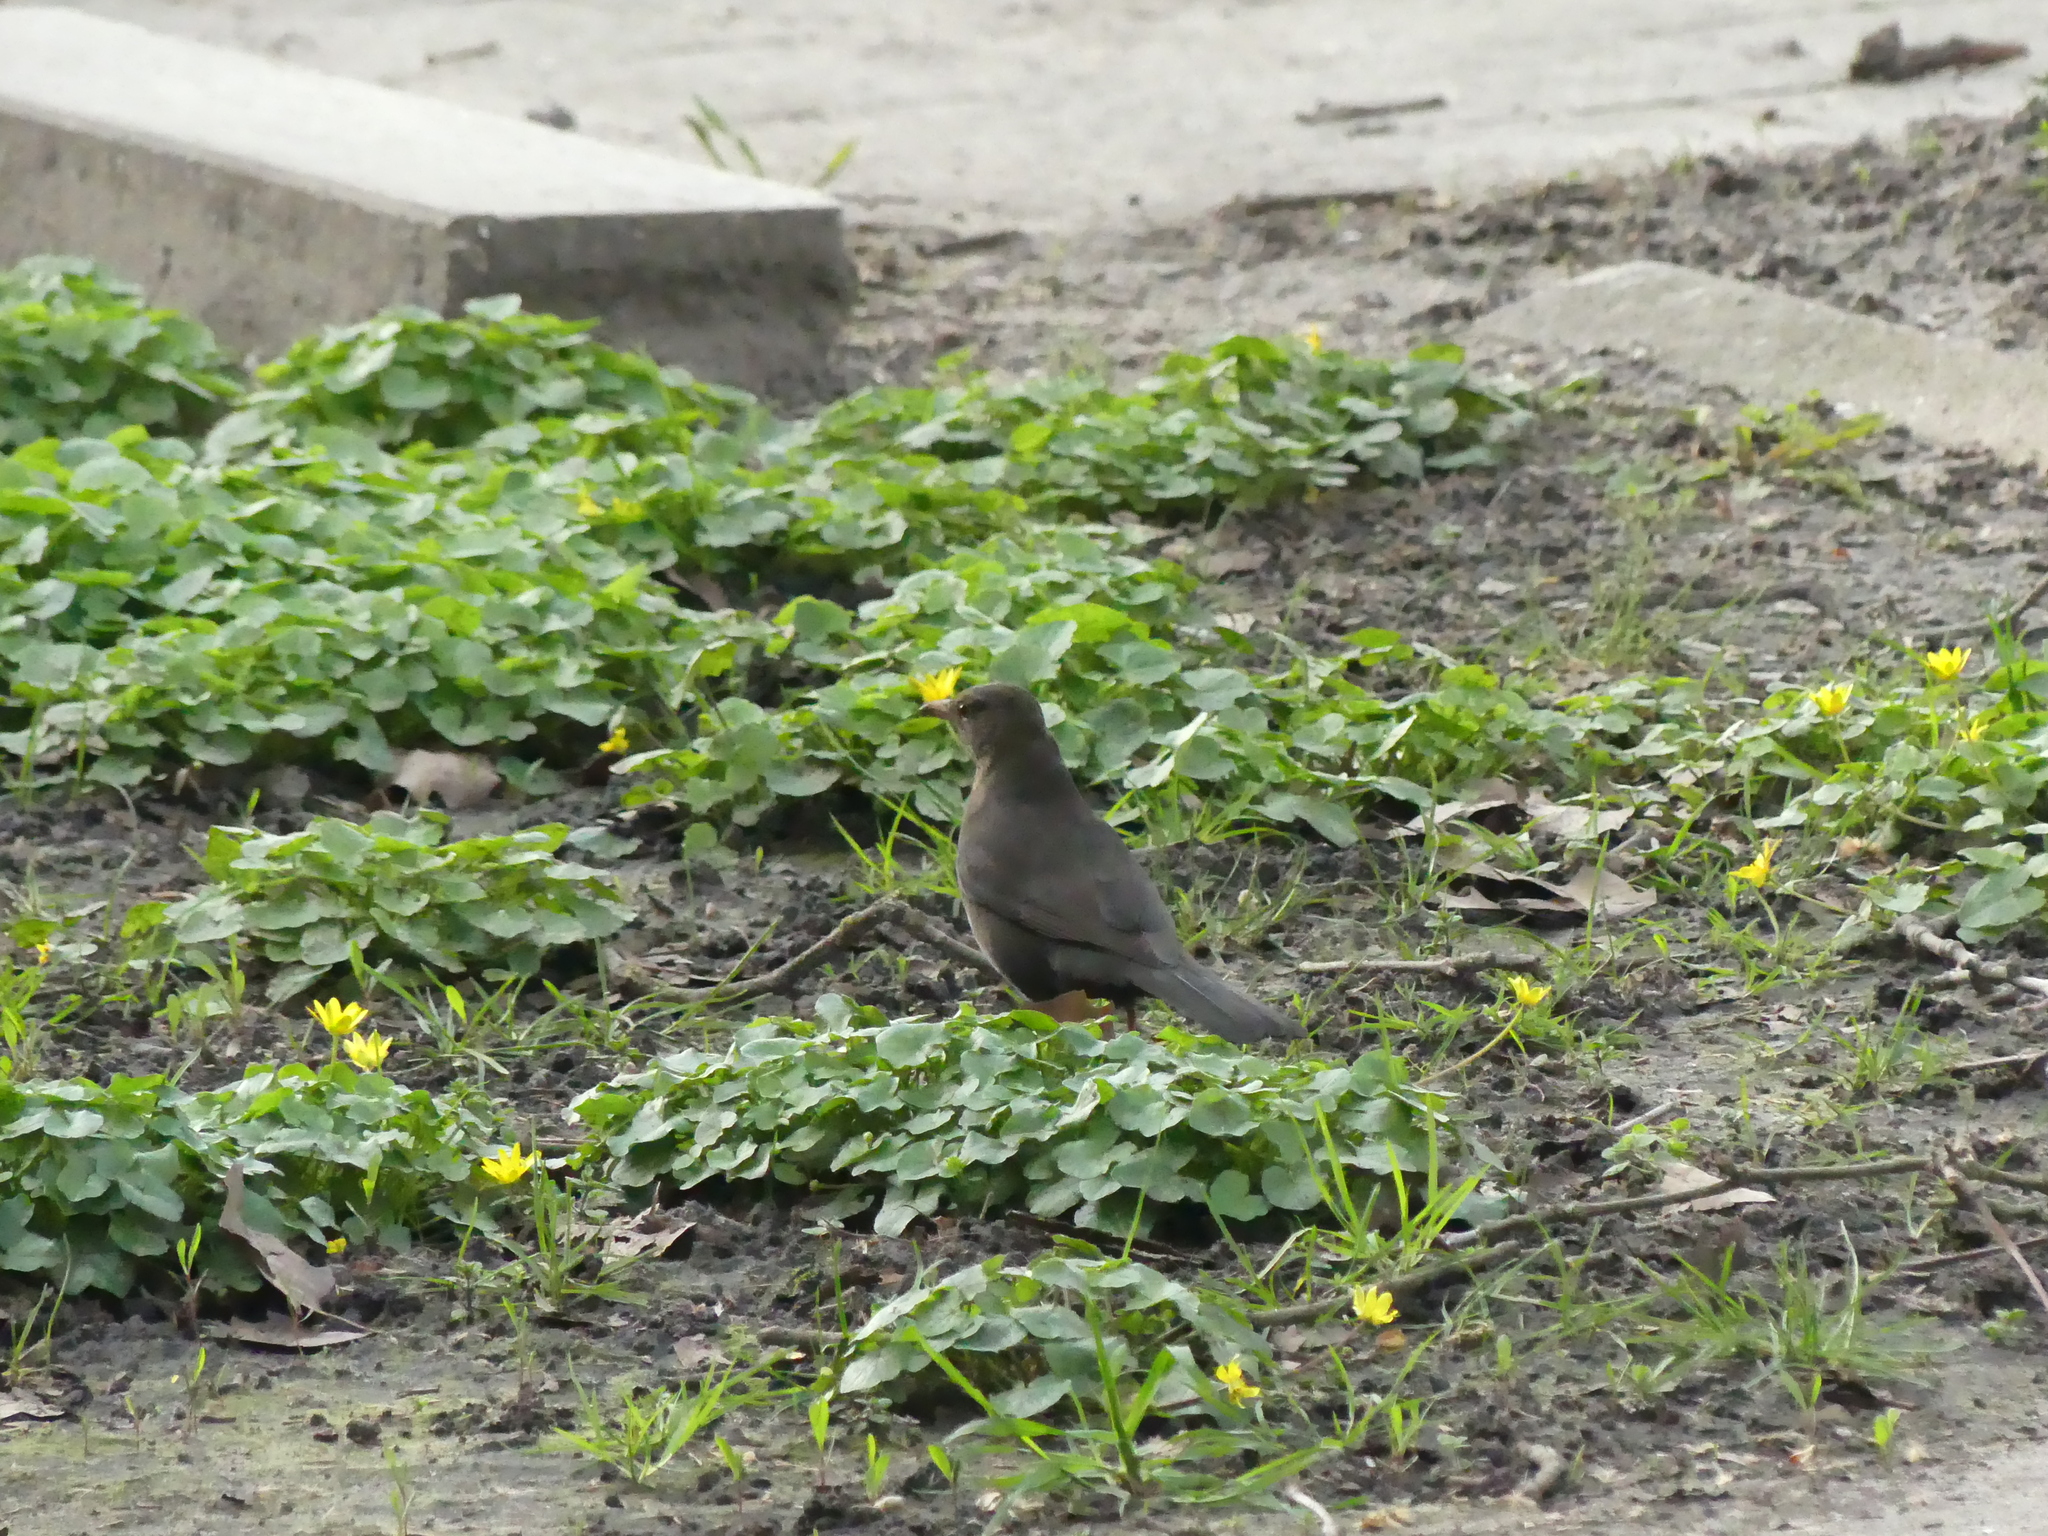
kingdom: Animalia
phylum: Chordata
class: Aves
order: Passeriformes
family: Turdidae
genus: Turdus
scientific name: Turdus merula
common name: Common blackbird
